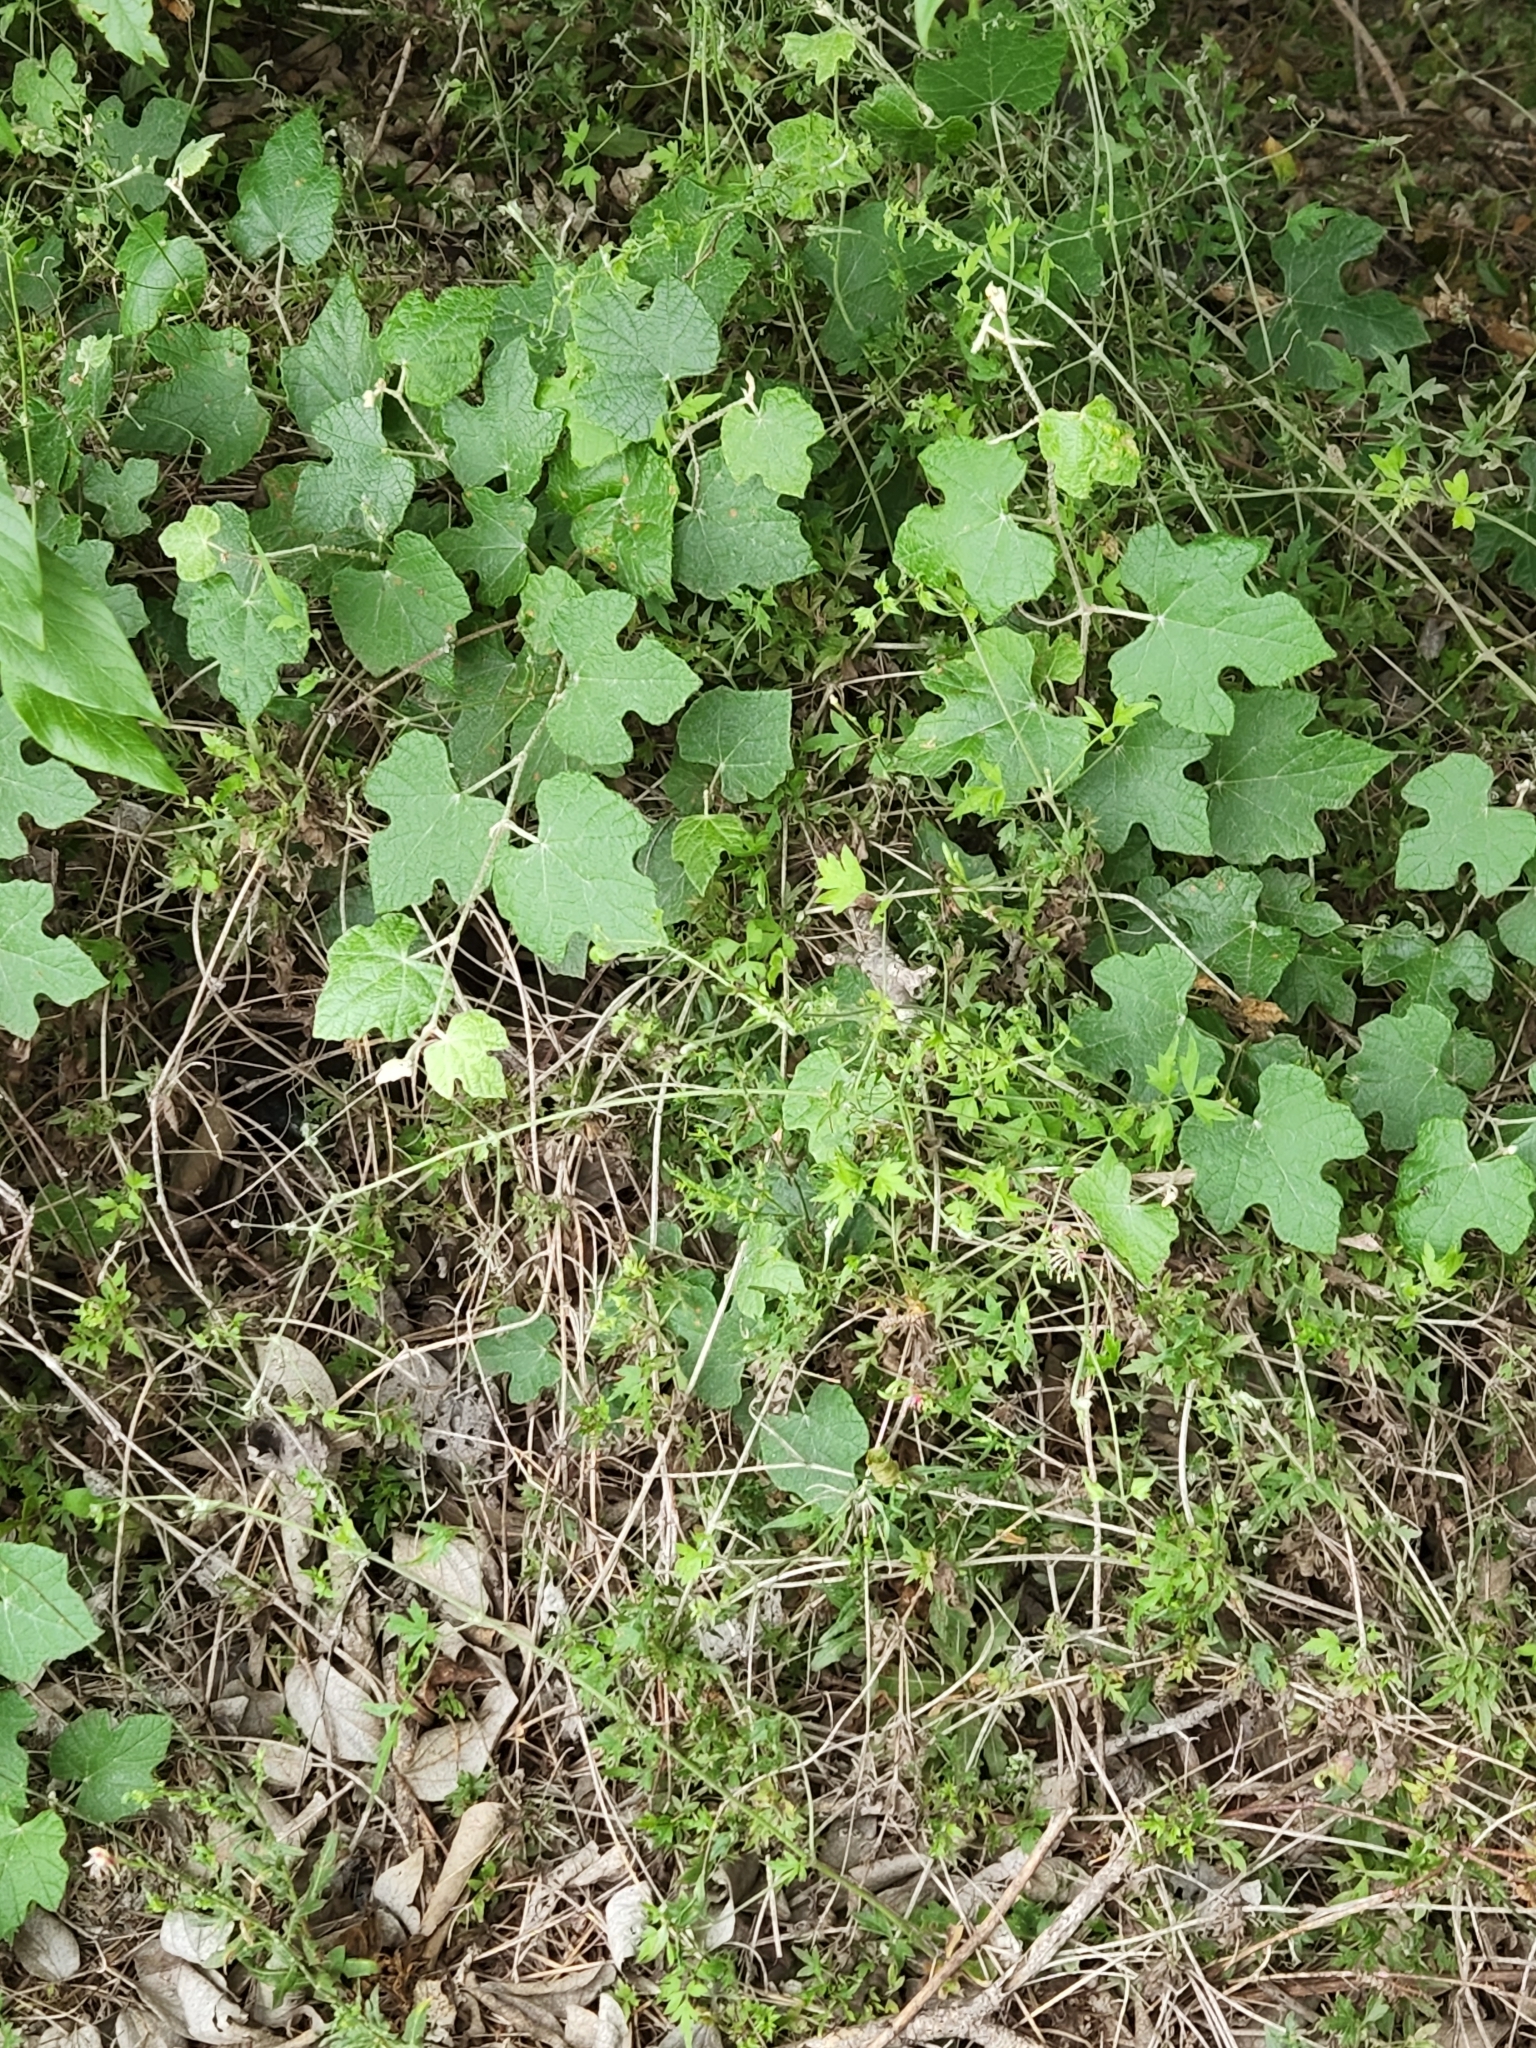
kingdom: Plantae
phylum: Tracheophyta
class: Magnoliopsida
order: Vitales
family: Vitaceae
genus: Vitis
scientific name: Vitis mustangensis
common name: Mustang grape
